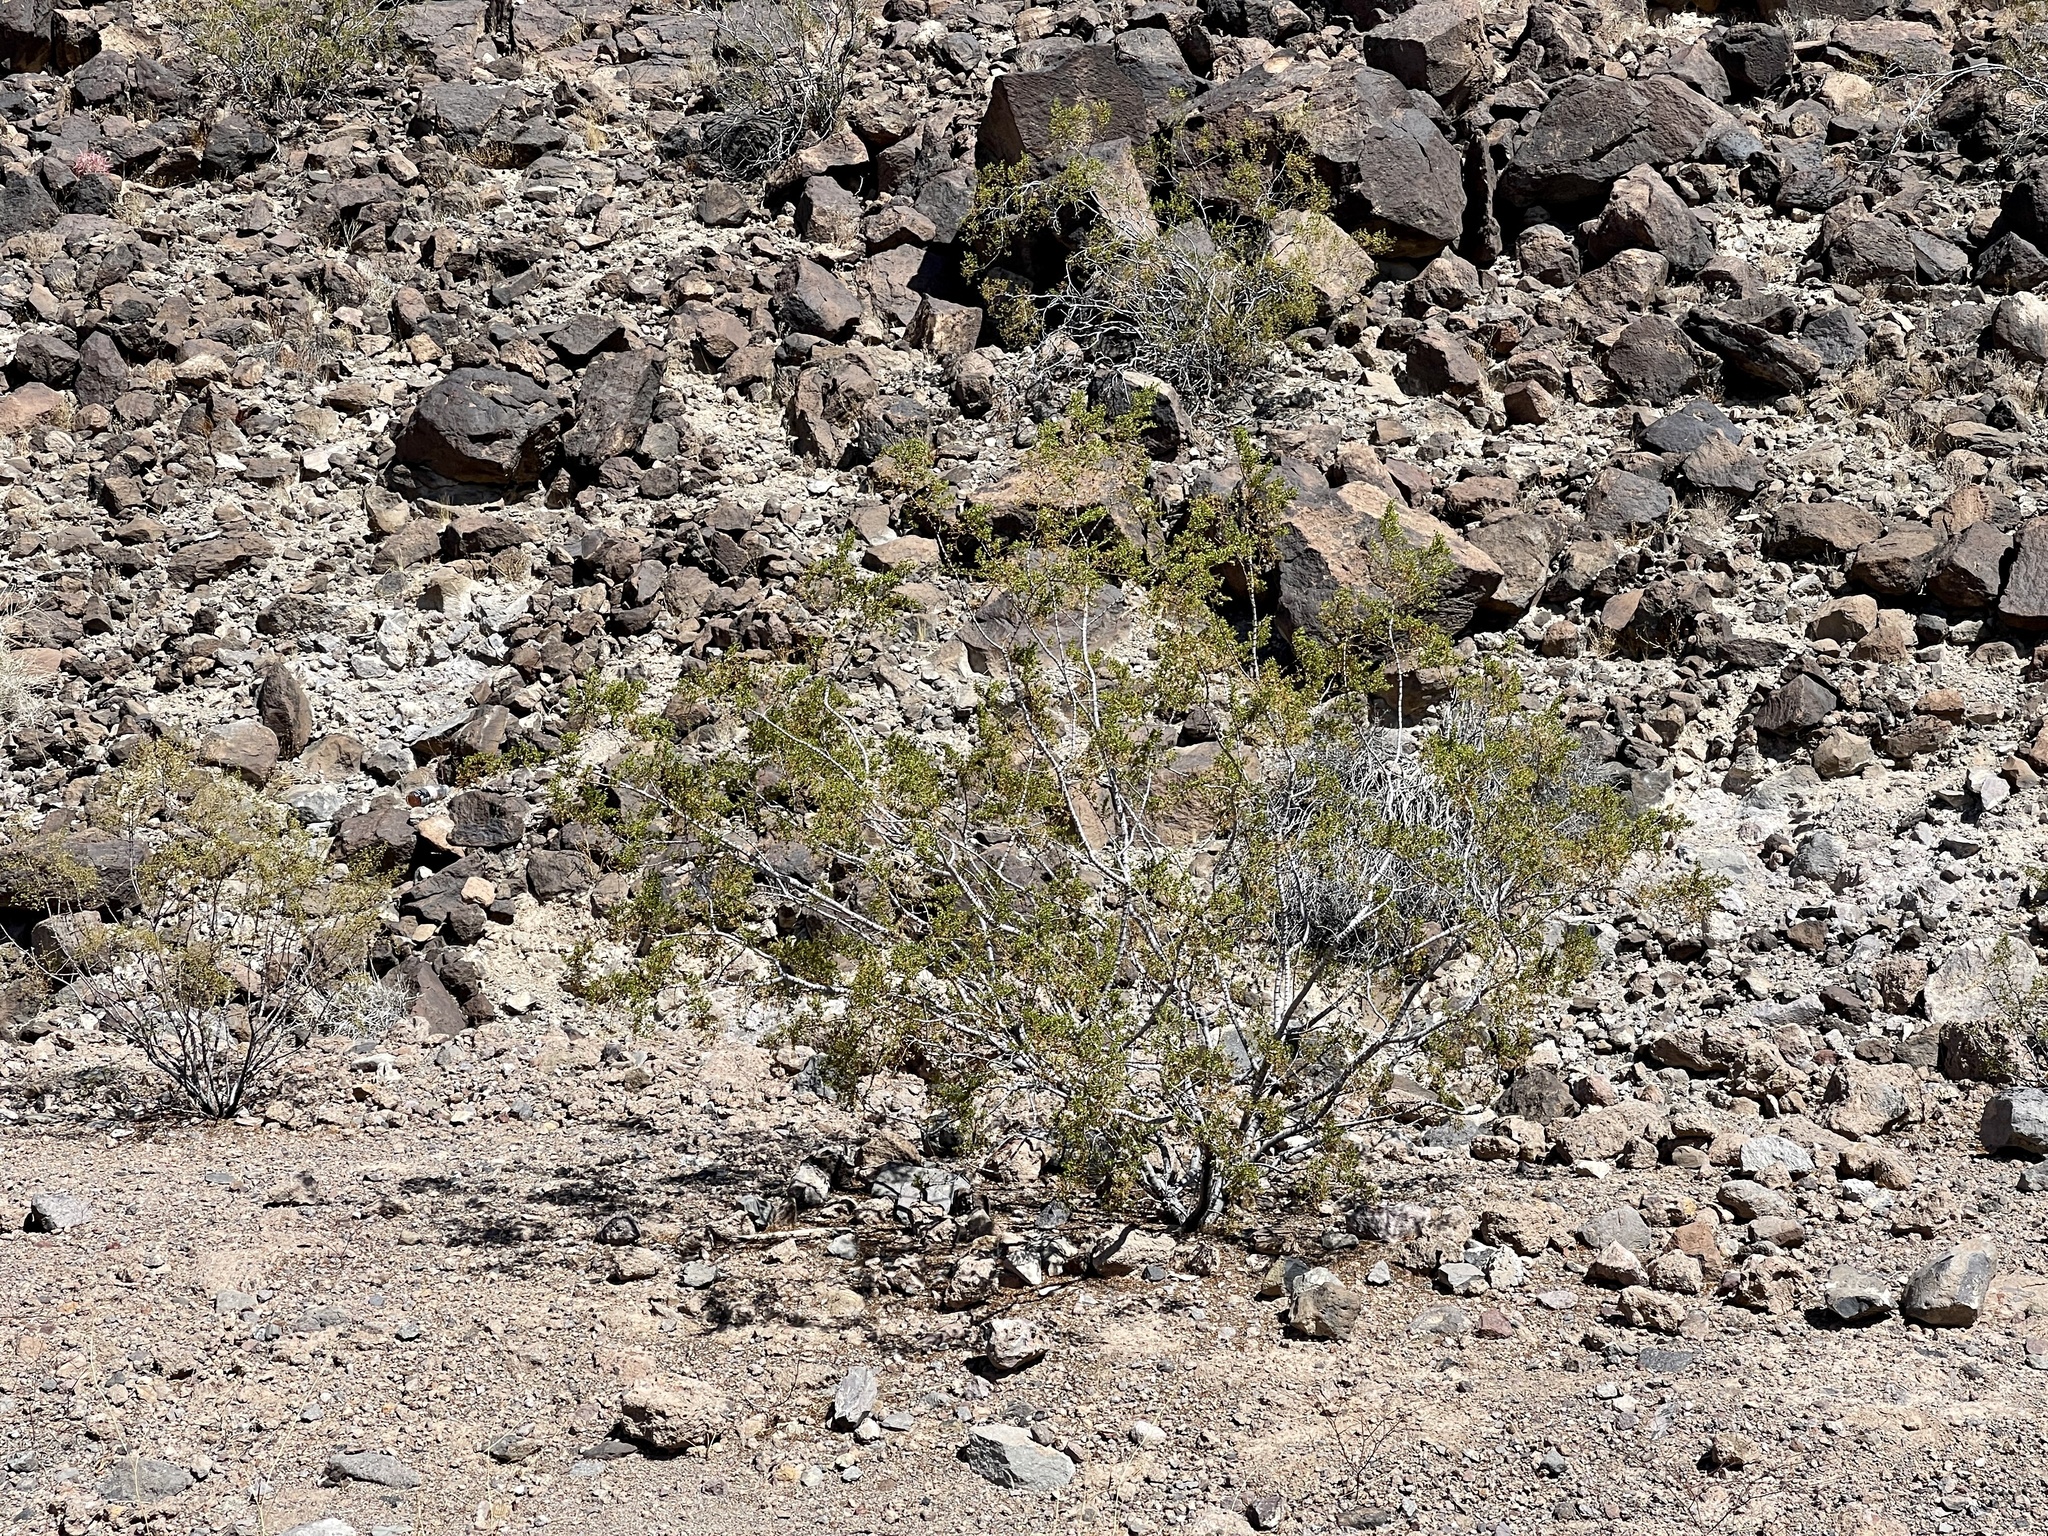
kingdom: Plantae
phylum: Tracheophyta
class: Magnoliopsida
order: Zygophyllales
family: Zygophyllaceae
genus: Larrea
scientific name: Larrea tridentata
